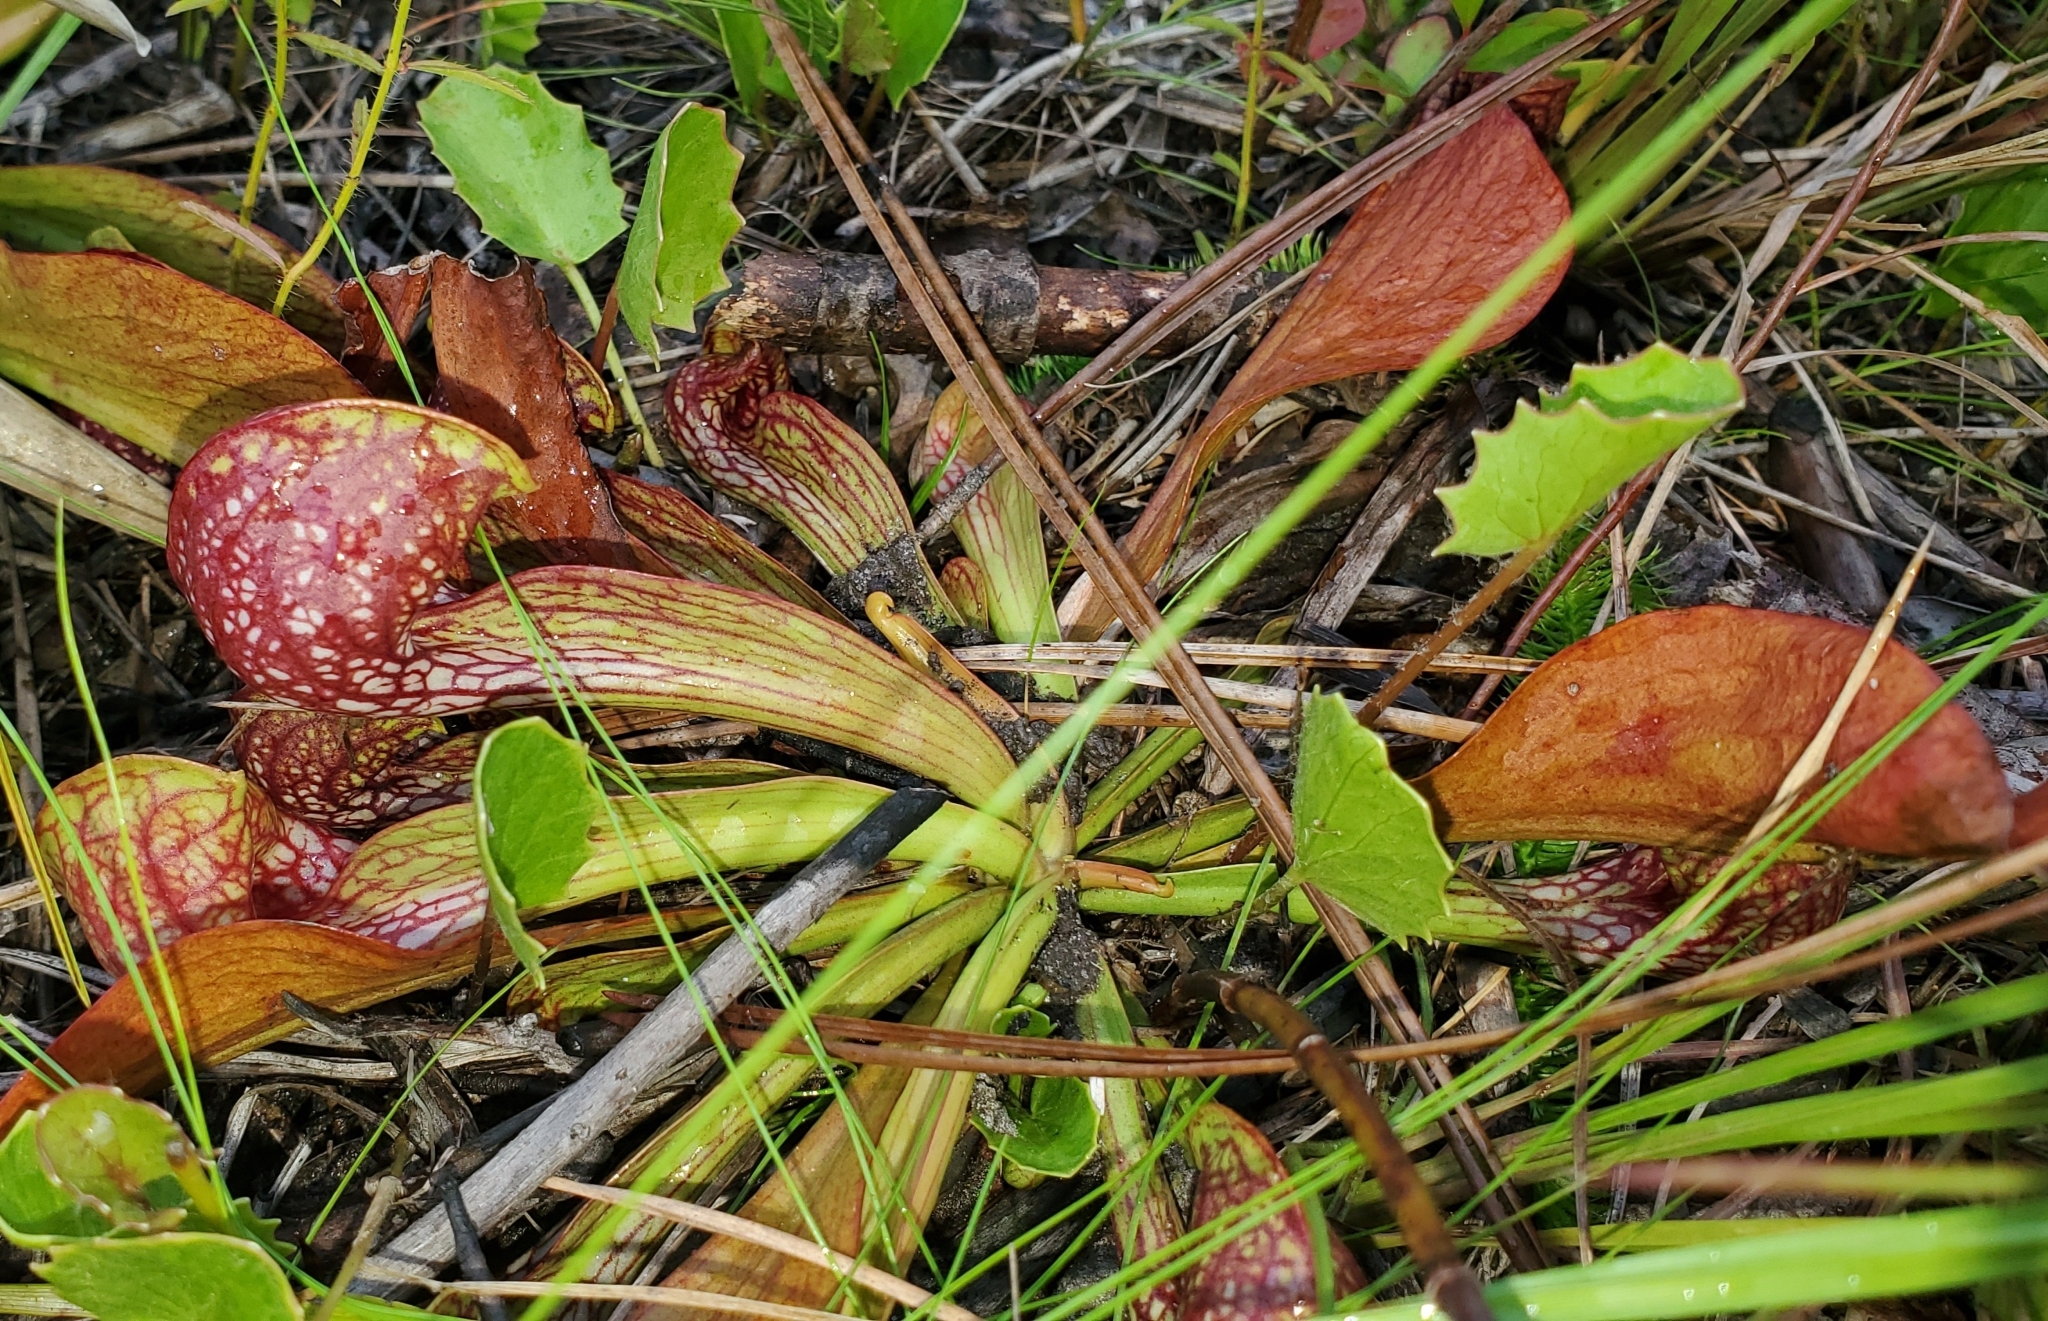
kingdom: Plantae
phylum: Tracheophyta
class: Magnoliopsida
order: Ericales
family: Sarraceniaceae
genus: Sarracenia
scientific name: Sarracenia psittacina
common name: Parrot pitcherplant
